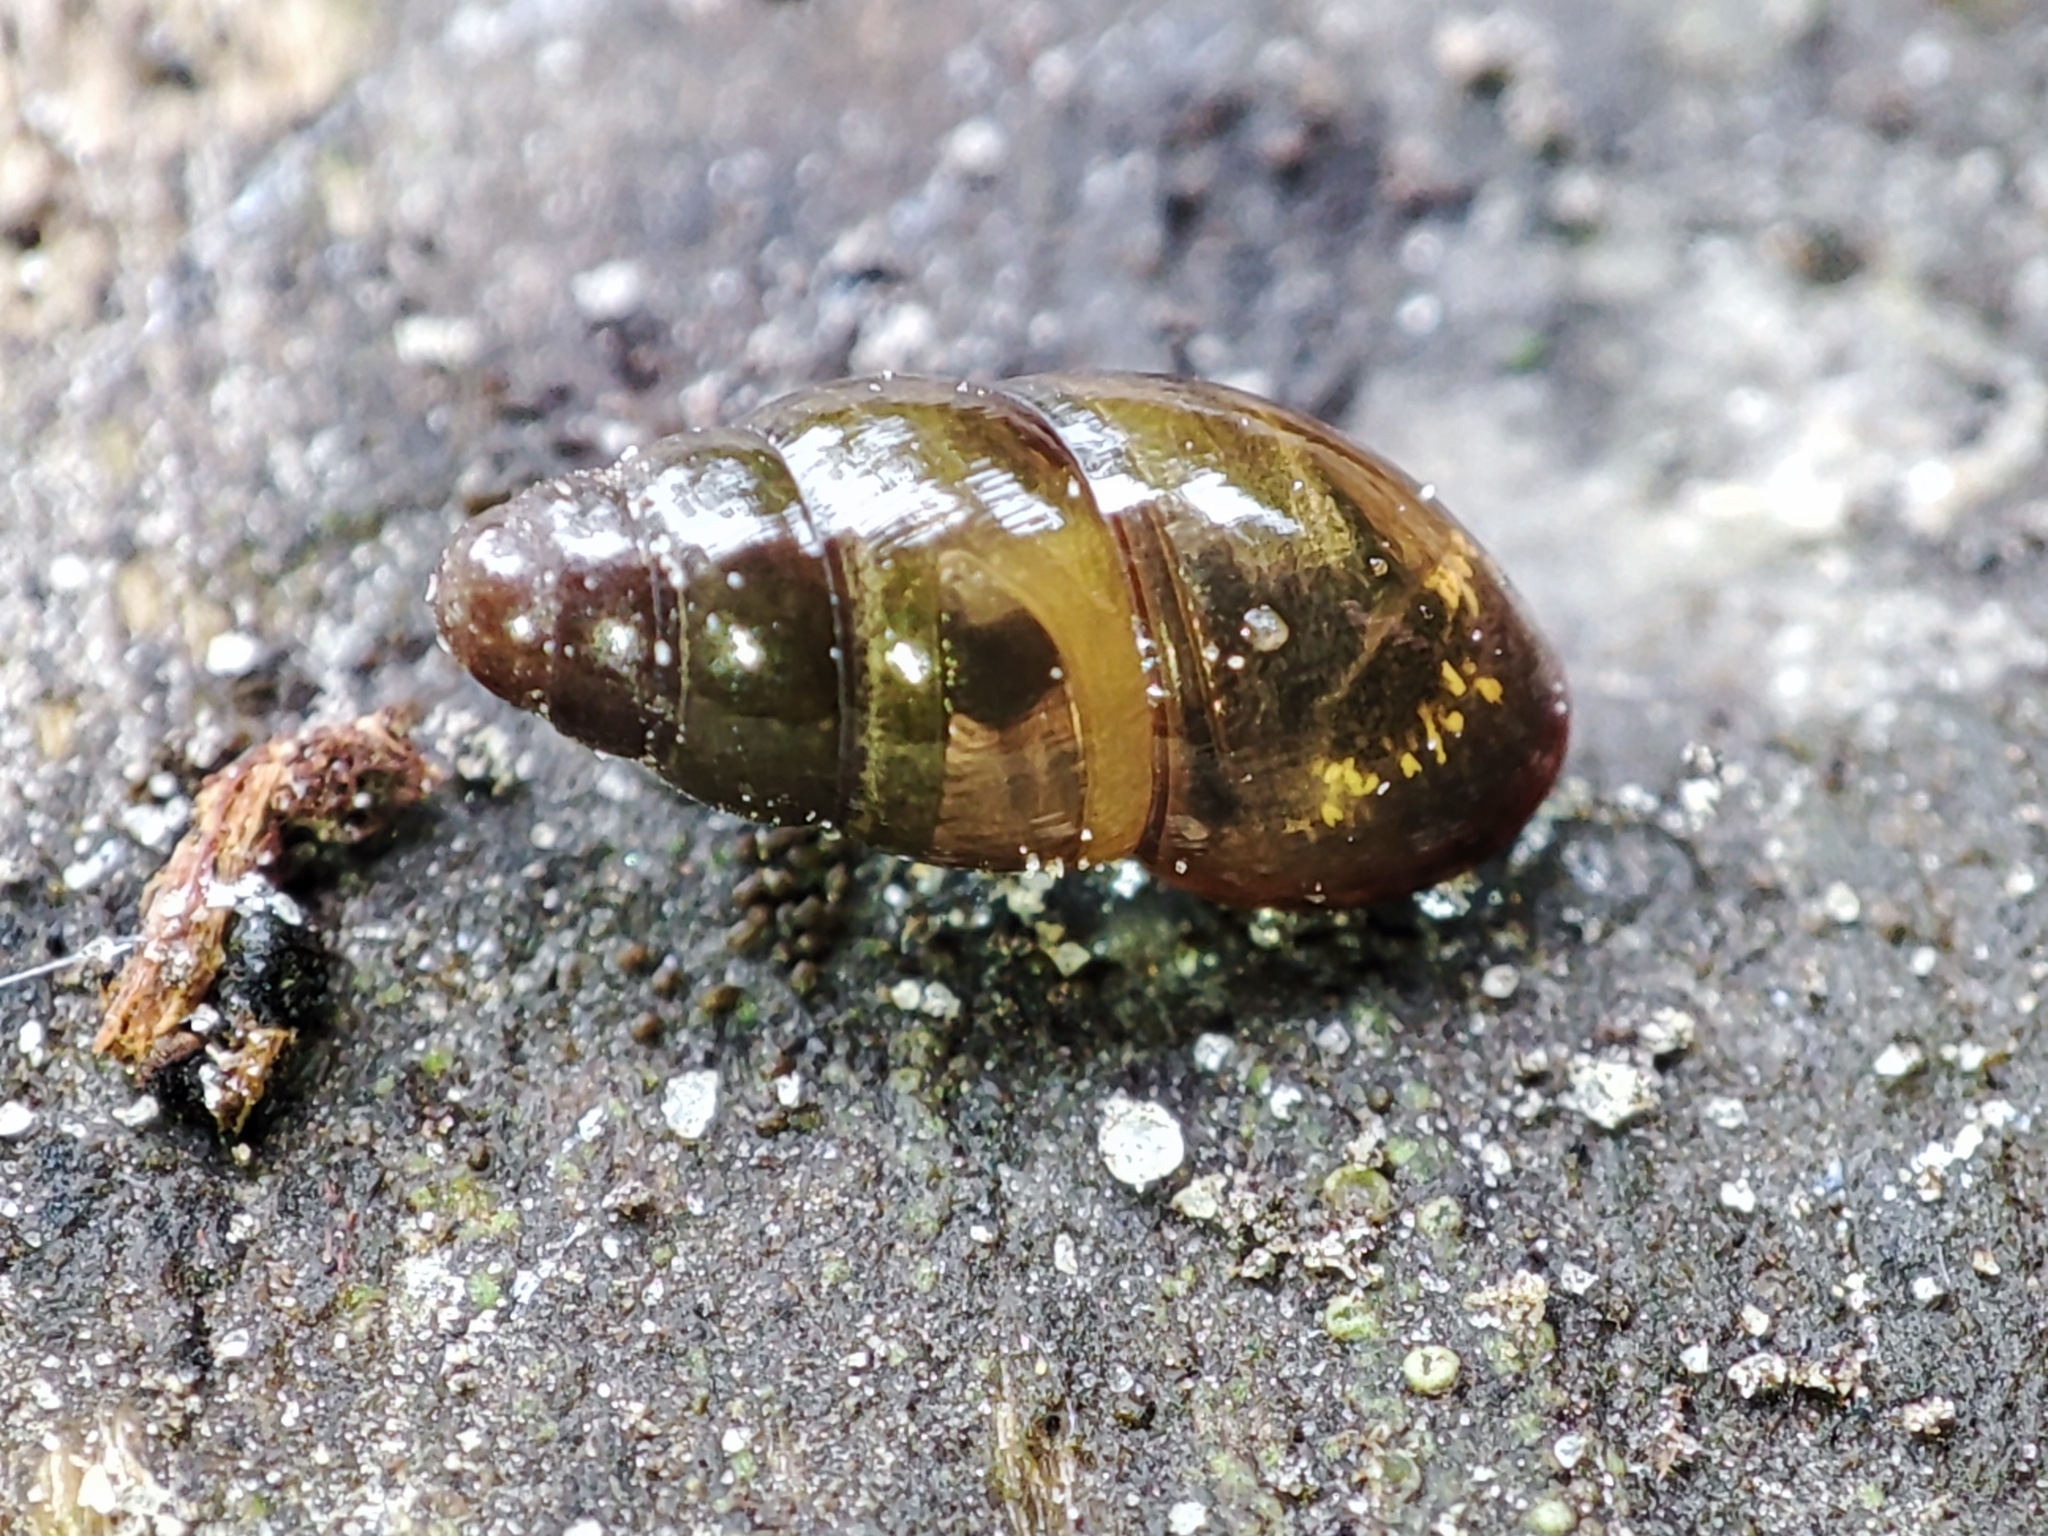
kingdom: Animalia
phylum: Mollusca
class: Gastropoda
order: Stylommatophora
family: Cochlicopidae
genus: Cochlicopa
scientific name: Cochlicopa lubrica
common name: Glossy pillar snail
